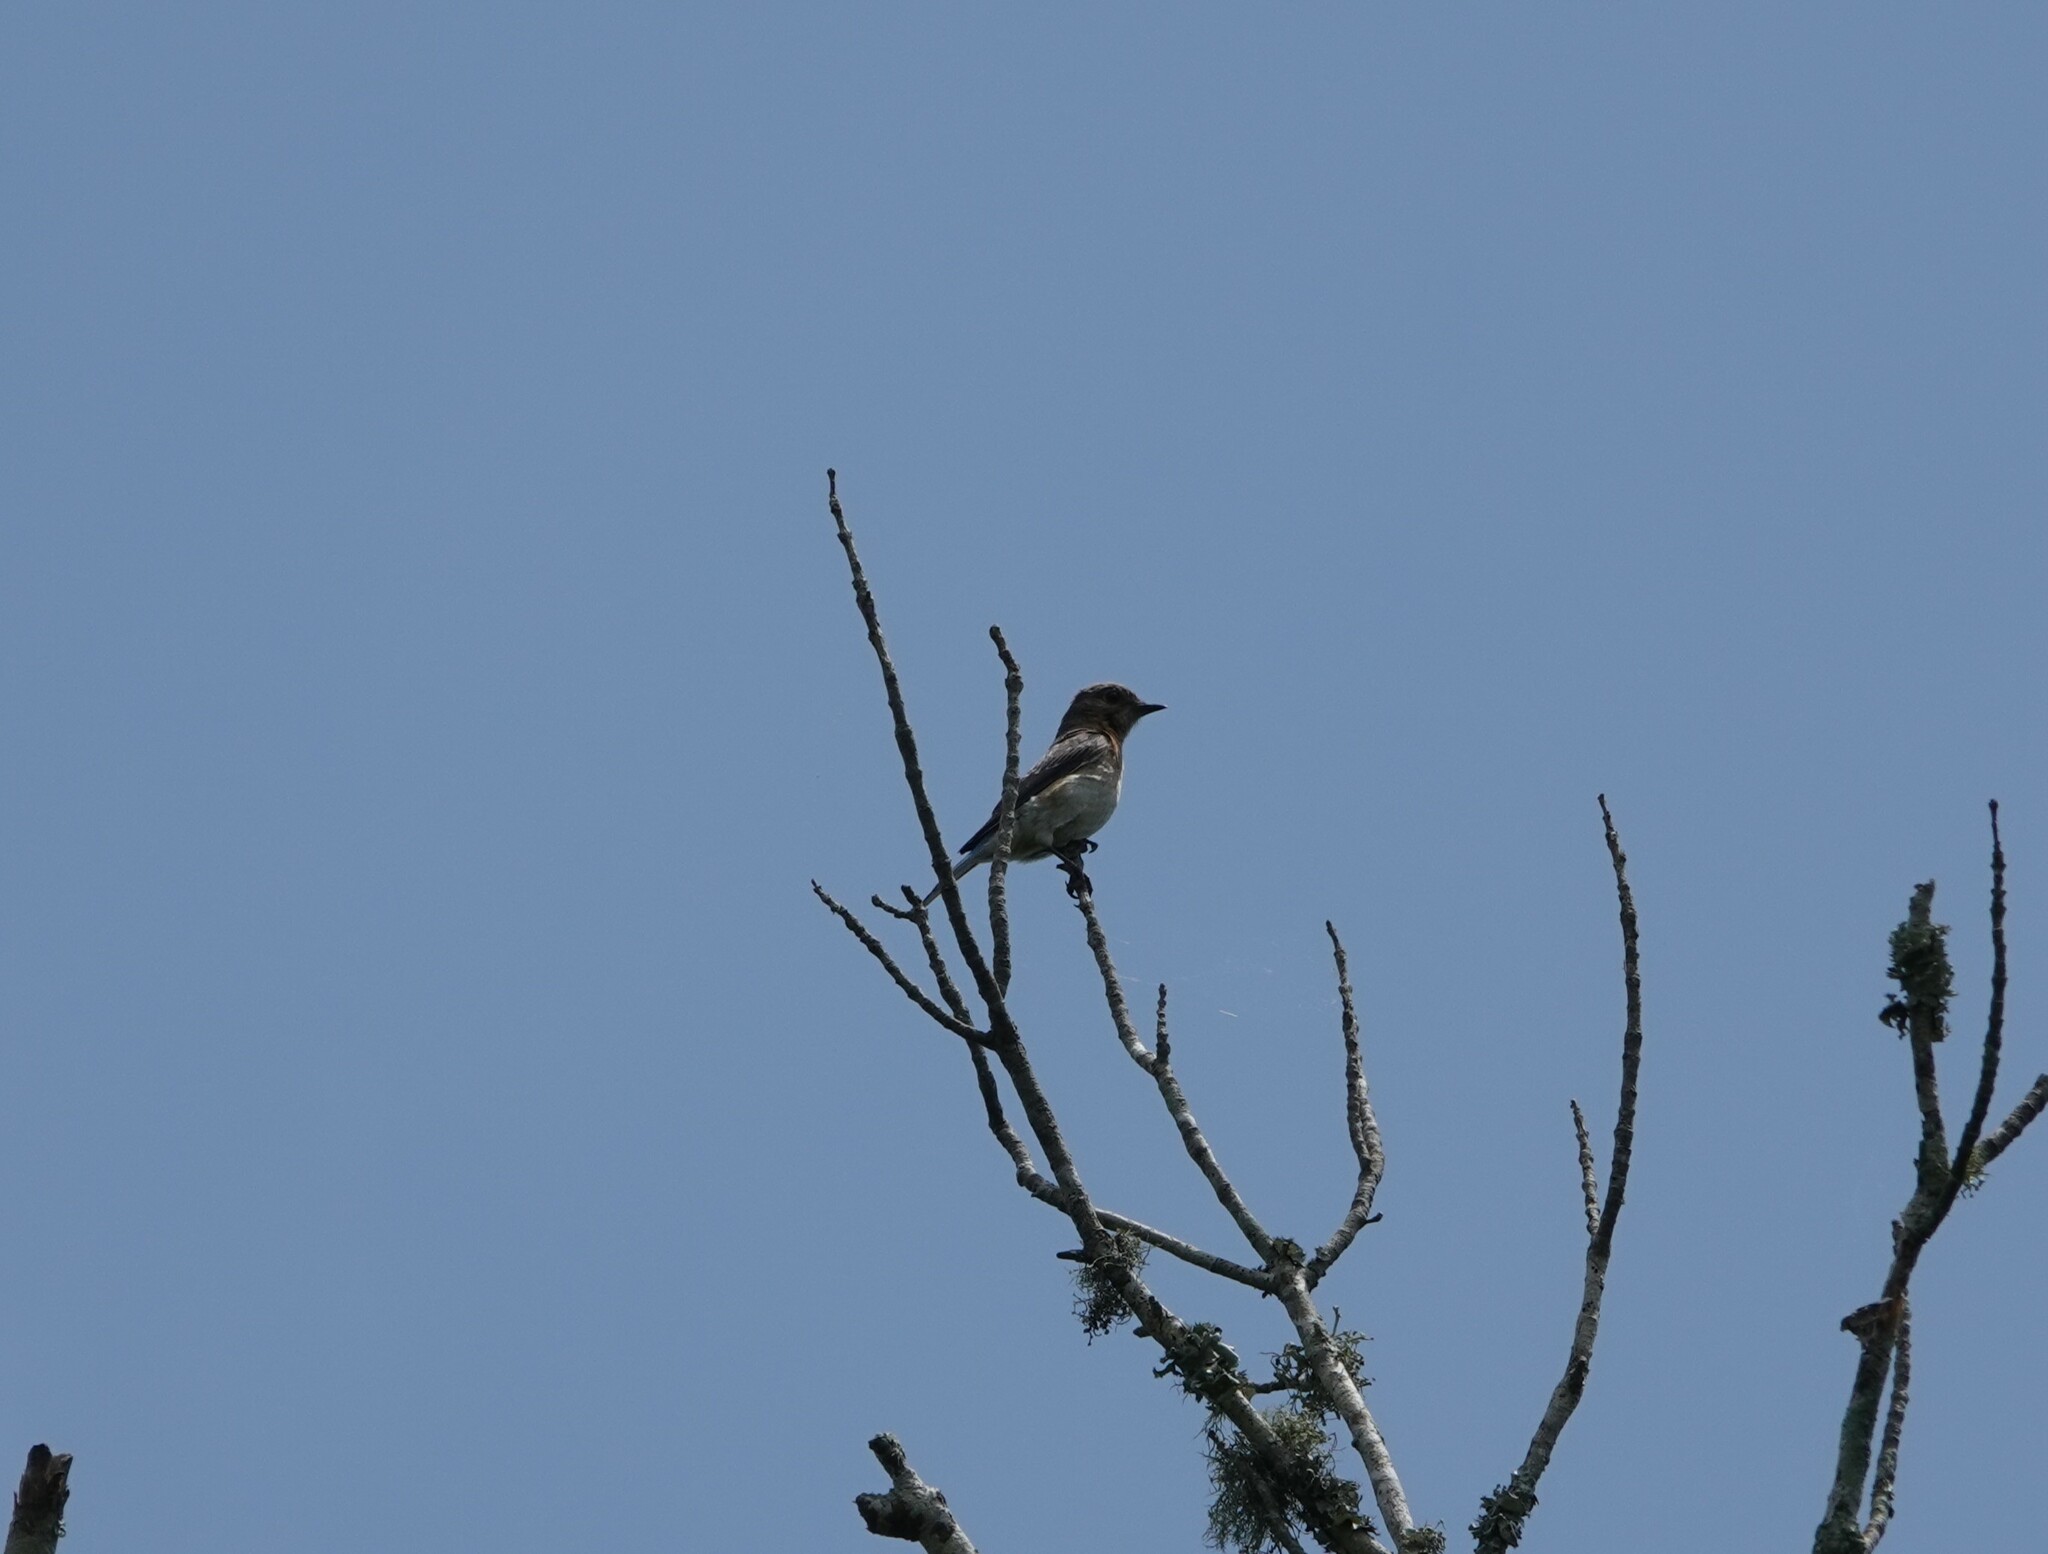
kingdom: Animalia
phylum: Chordata
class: Aves
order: Passeriformes
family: Turdidae
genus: Sialia
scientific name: Sialia sialis
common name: Eastern bluebird
